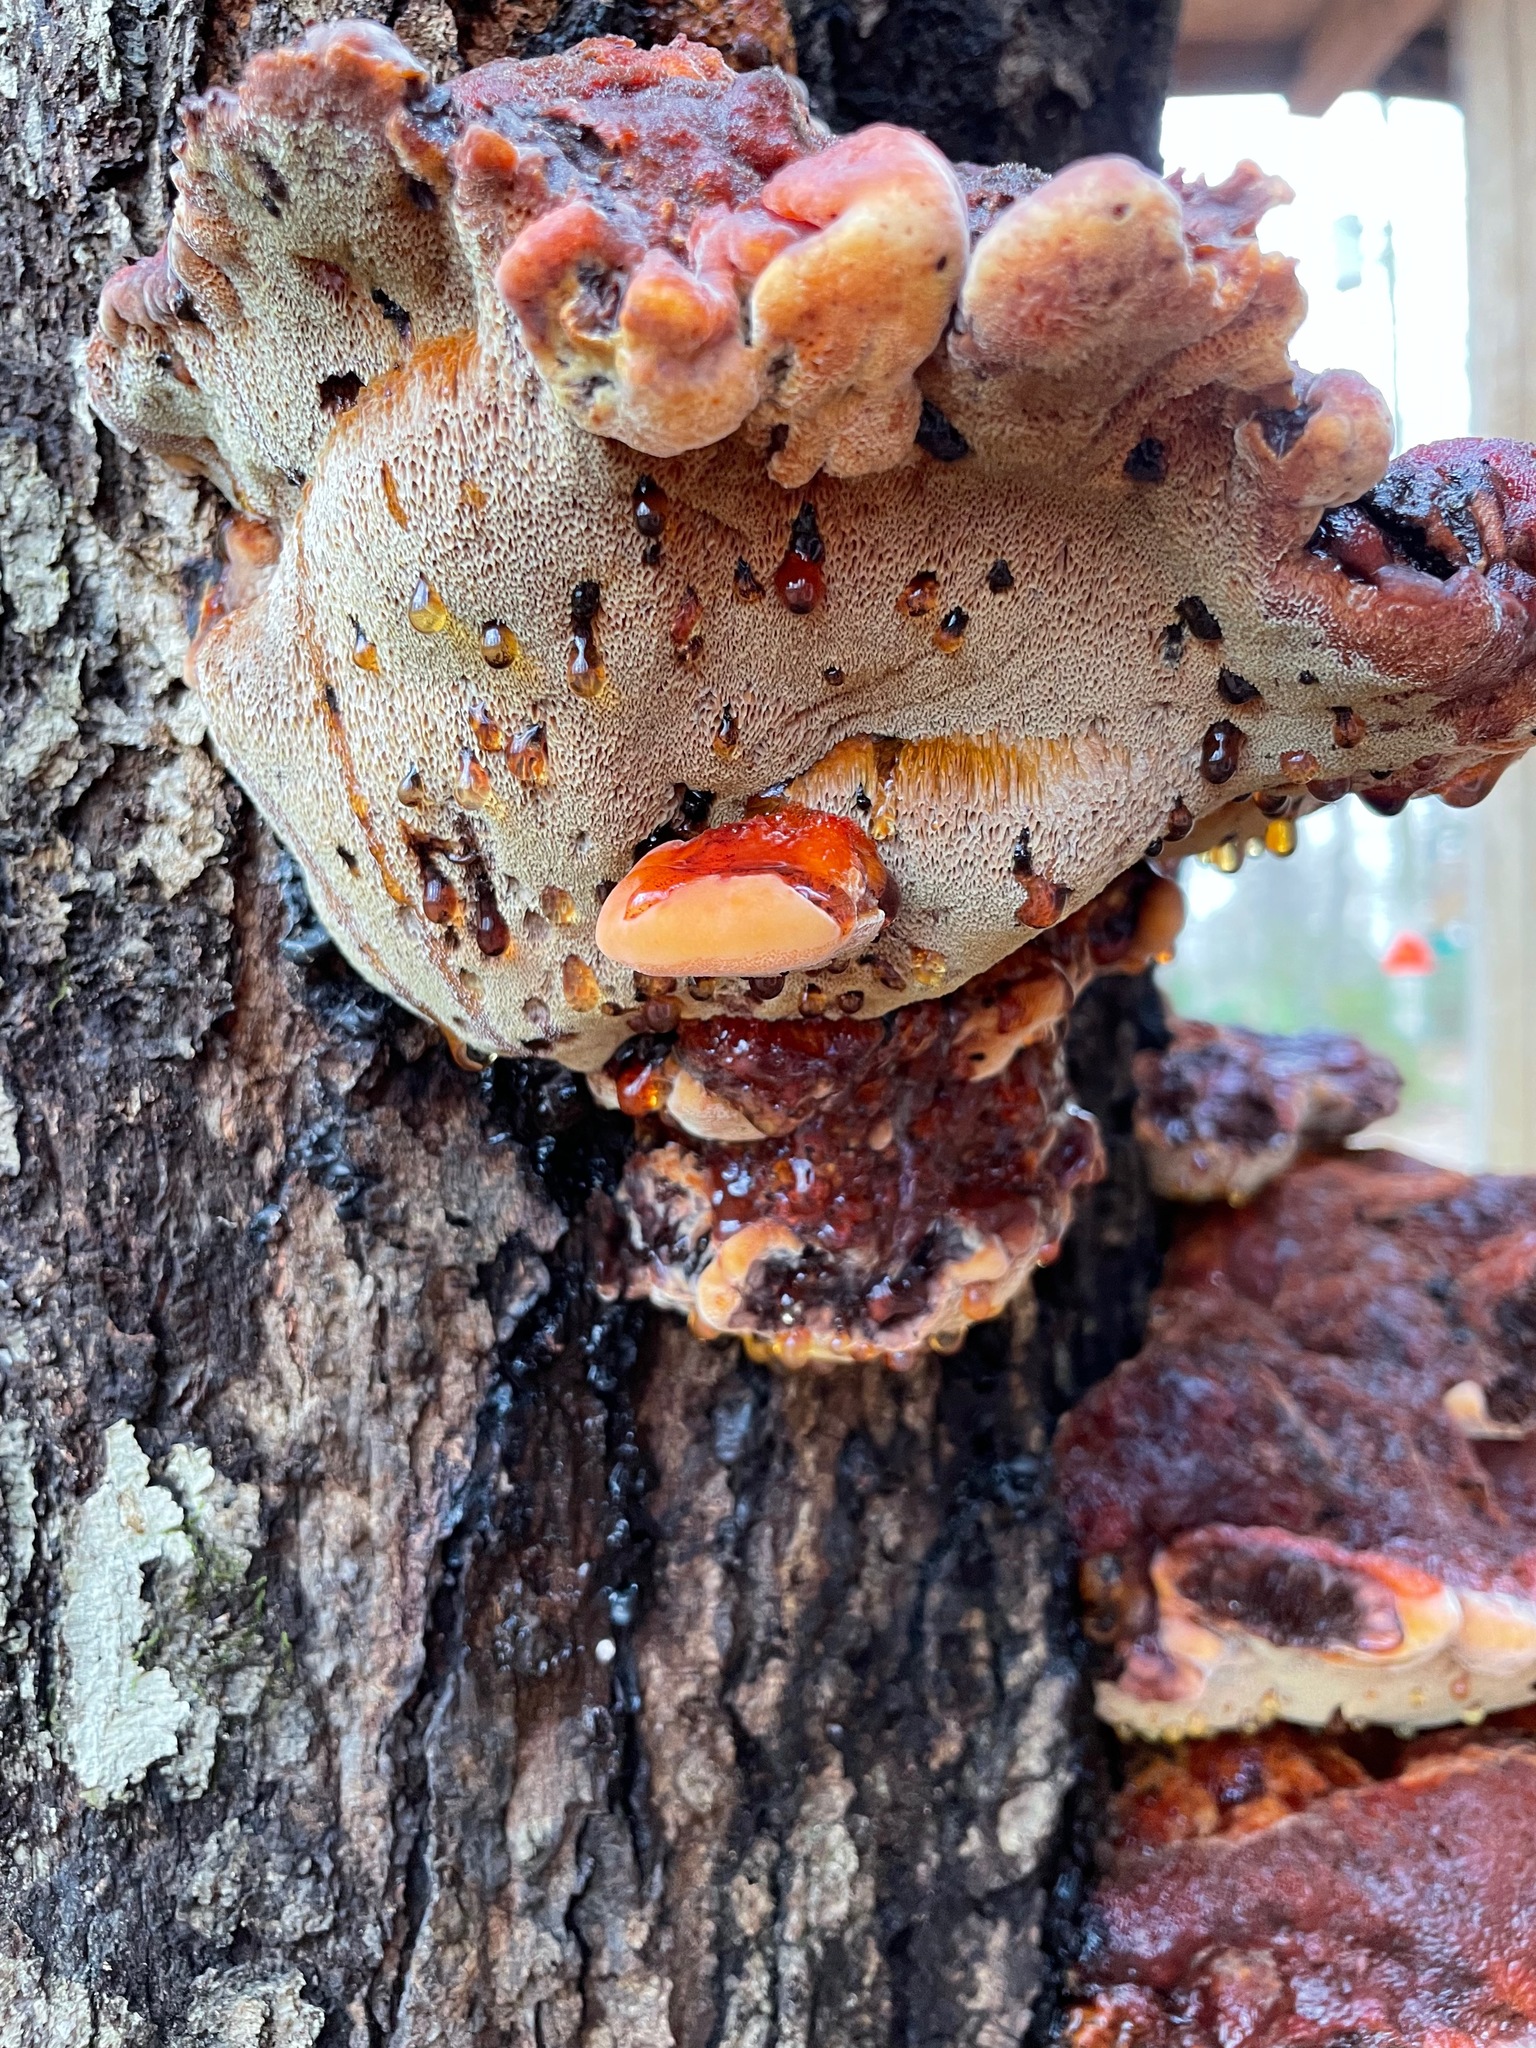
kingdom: Fungi
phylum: Basidiomycota
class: Agaricomycetes
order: Hymenochaetales
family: Hymenochaetaceae
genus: Inonotus
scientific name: Inonotus quercustris
